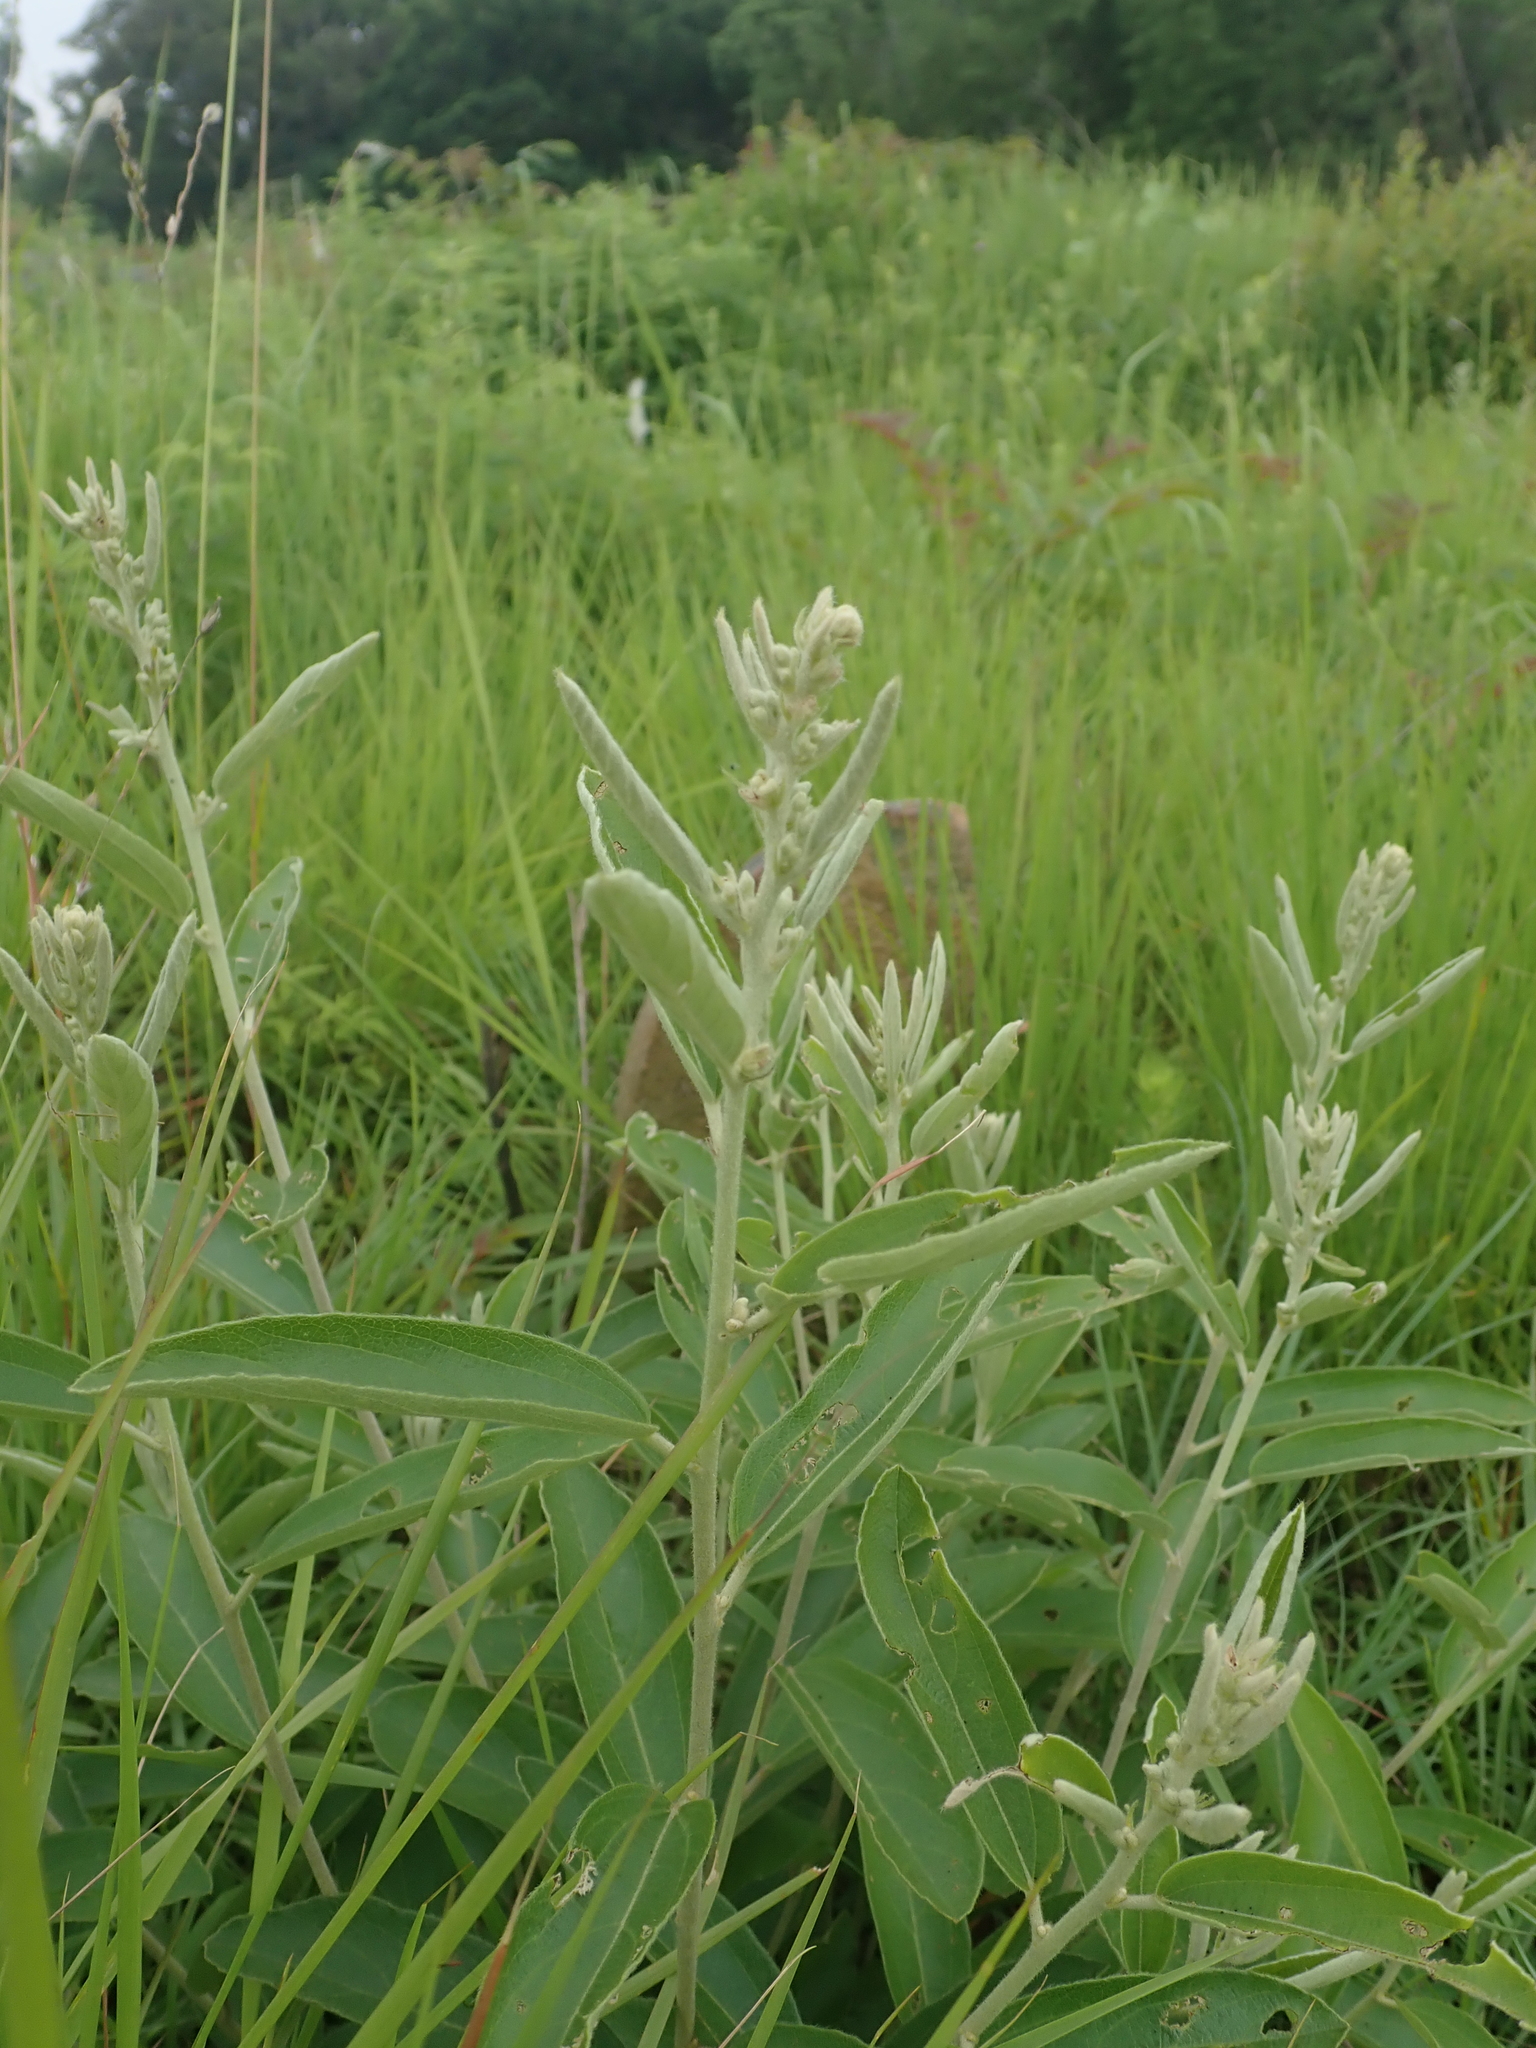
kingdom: Plantae
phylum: Tracheophyta
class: Magnoliopsida
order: Malvales
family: Malvaceae
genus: Helicteres
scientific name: Helicteres angustifolia
